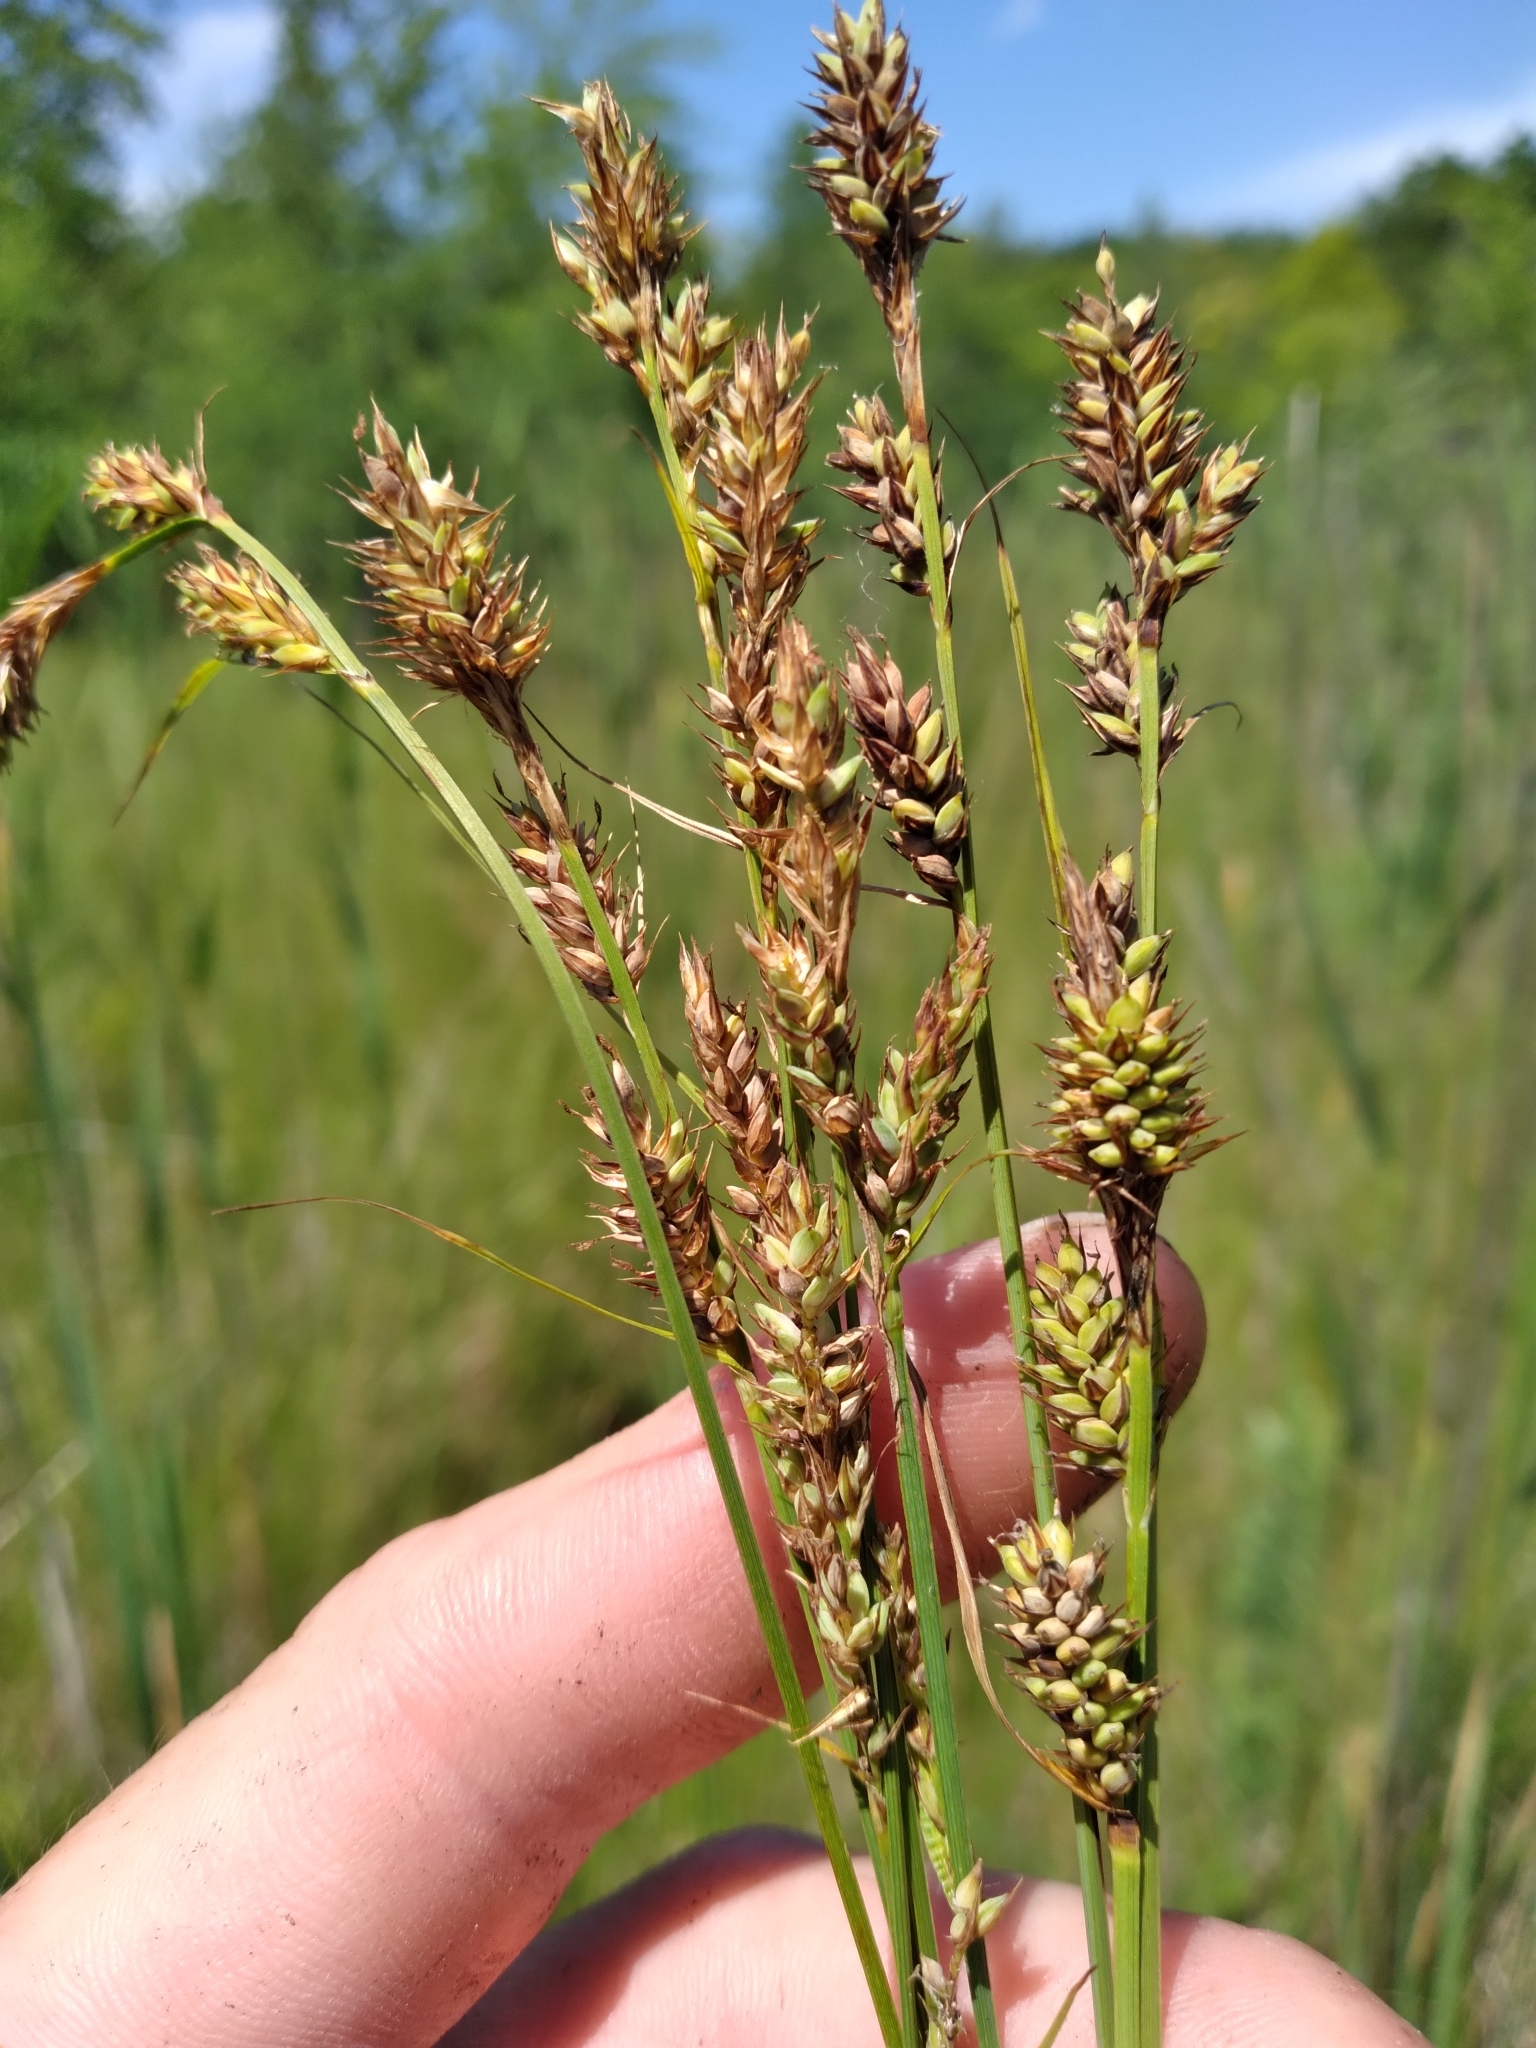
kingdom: Plantae
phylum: Tracheophyta
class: Liliopsida
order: Poales
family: Cyperaceae
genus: Carex
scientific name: Carex buxbaumii
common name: Club sedge
